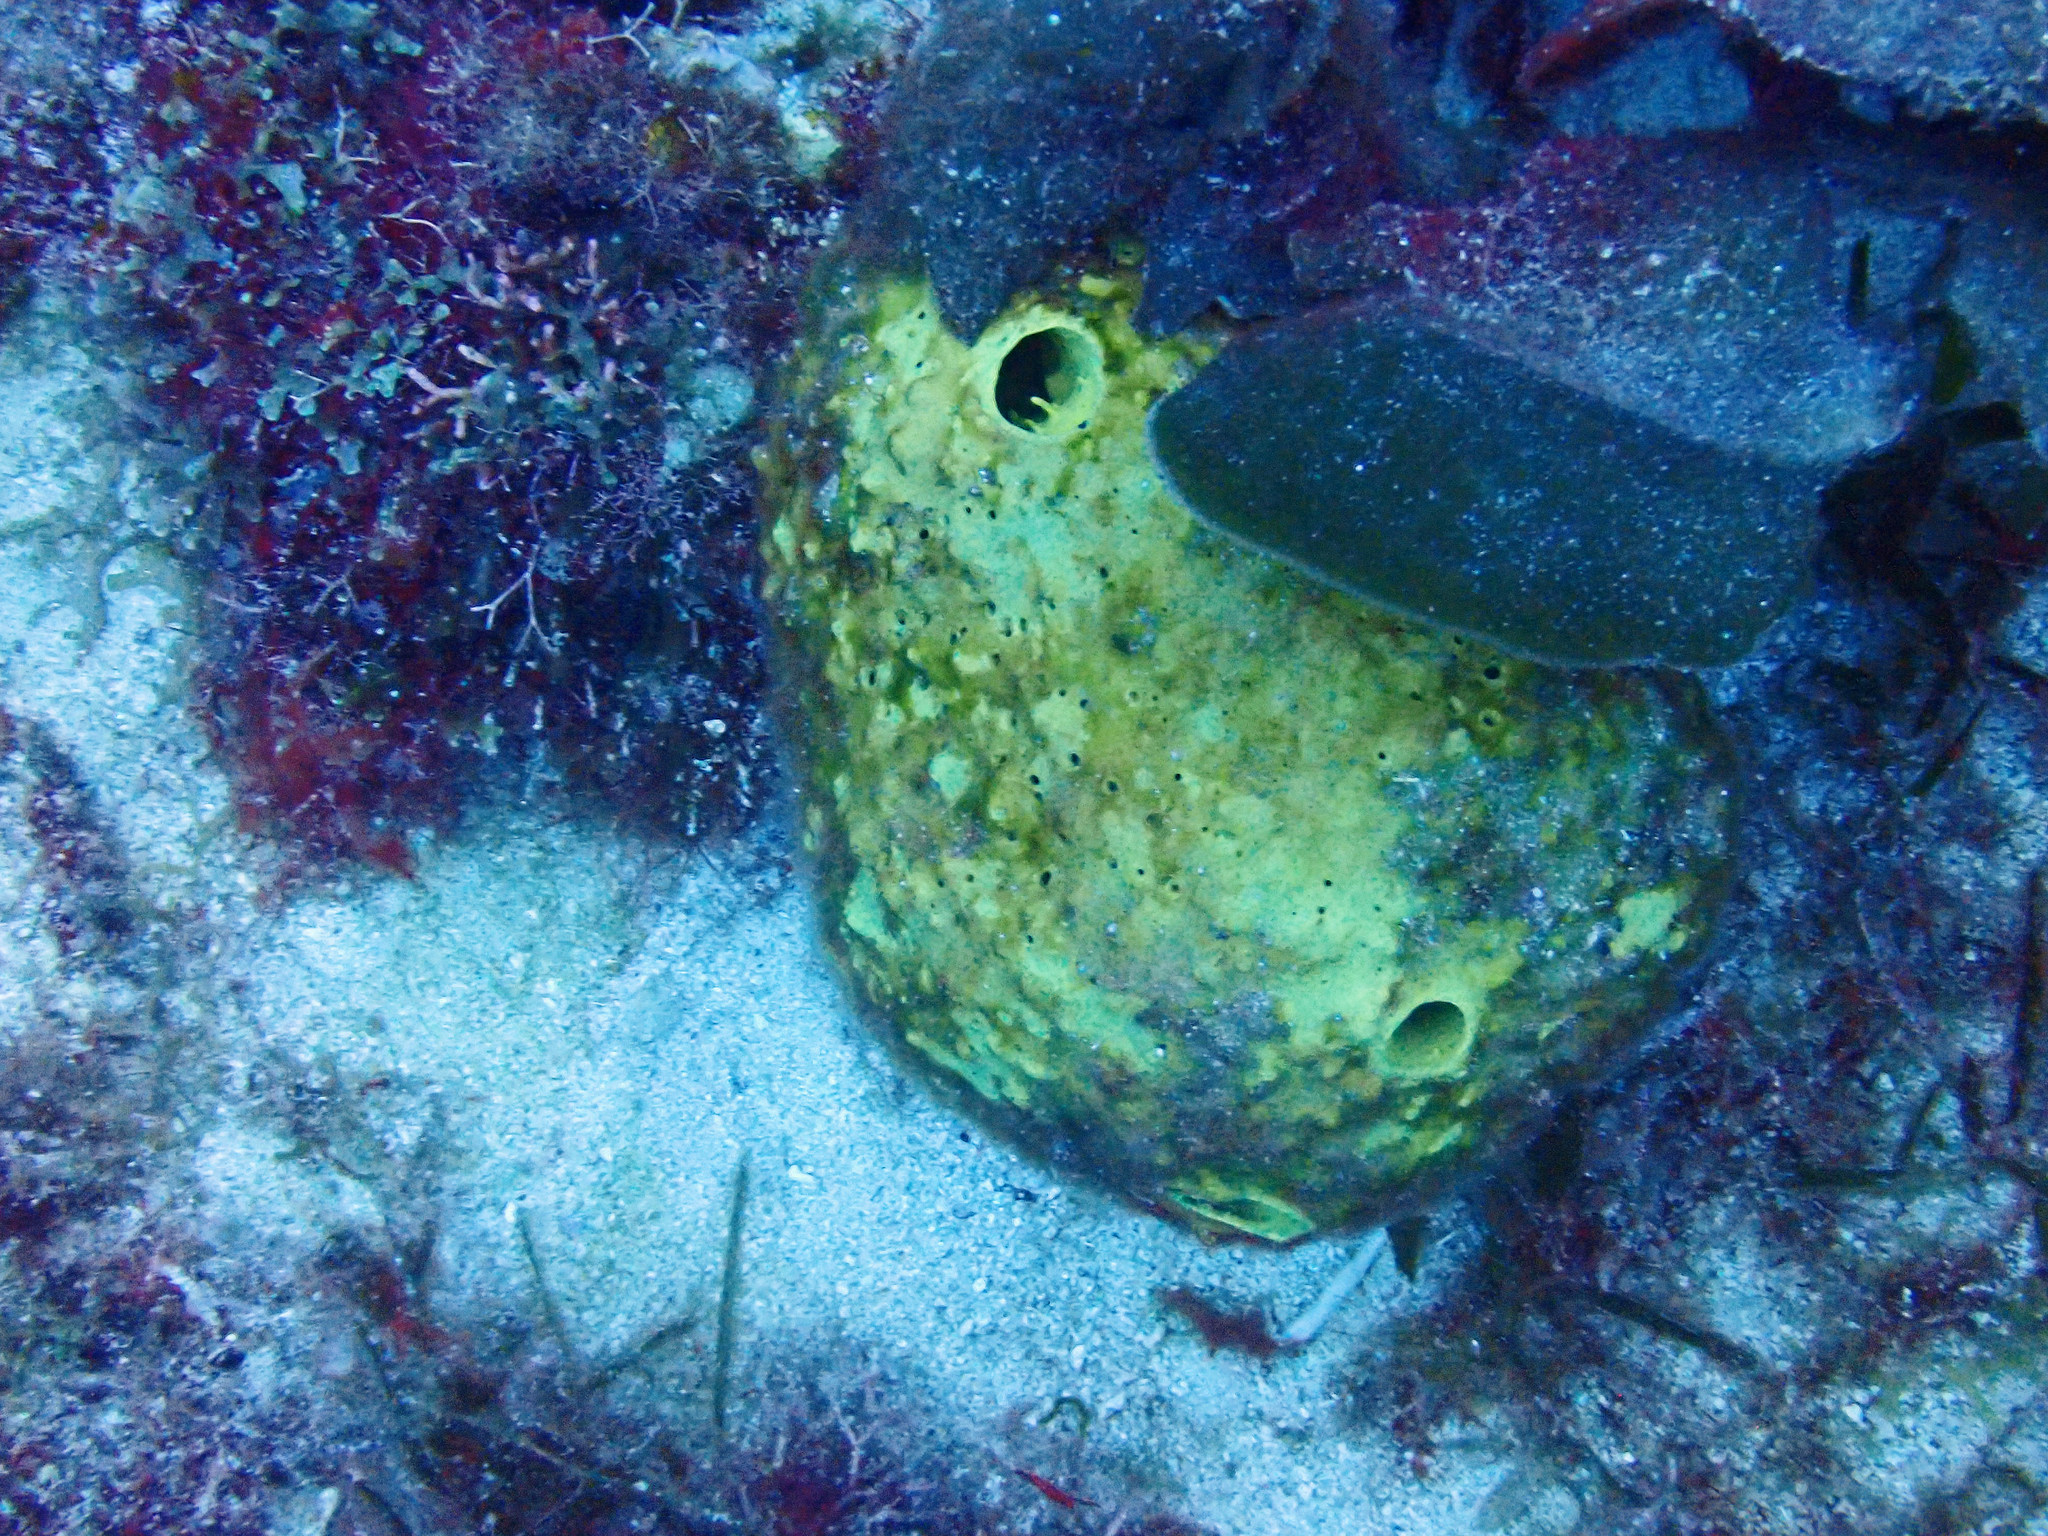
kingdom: Animalia
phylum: Porifera
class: Demospongiae
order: Verongiida
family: Aplysinidae
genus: Aiolochroia
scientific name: Aiolochroia crassa
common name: Branching tube sponge
